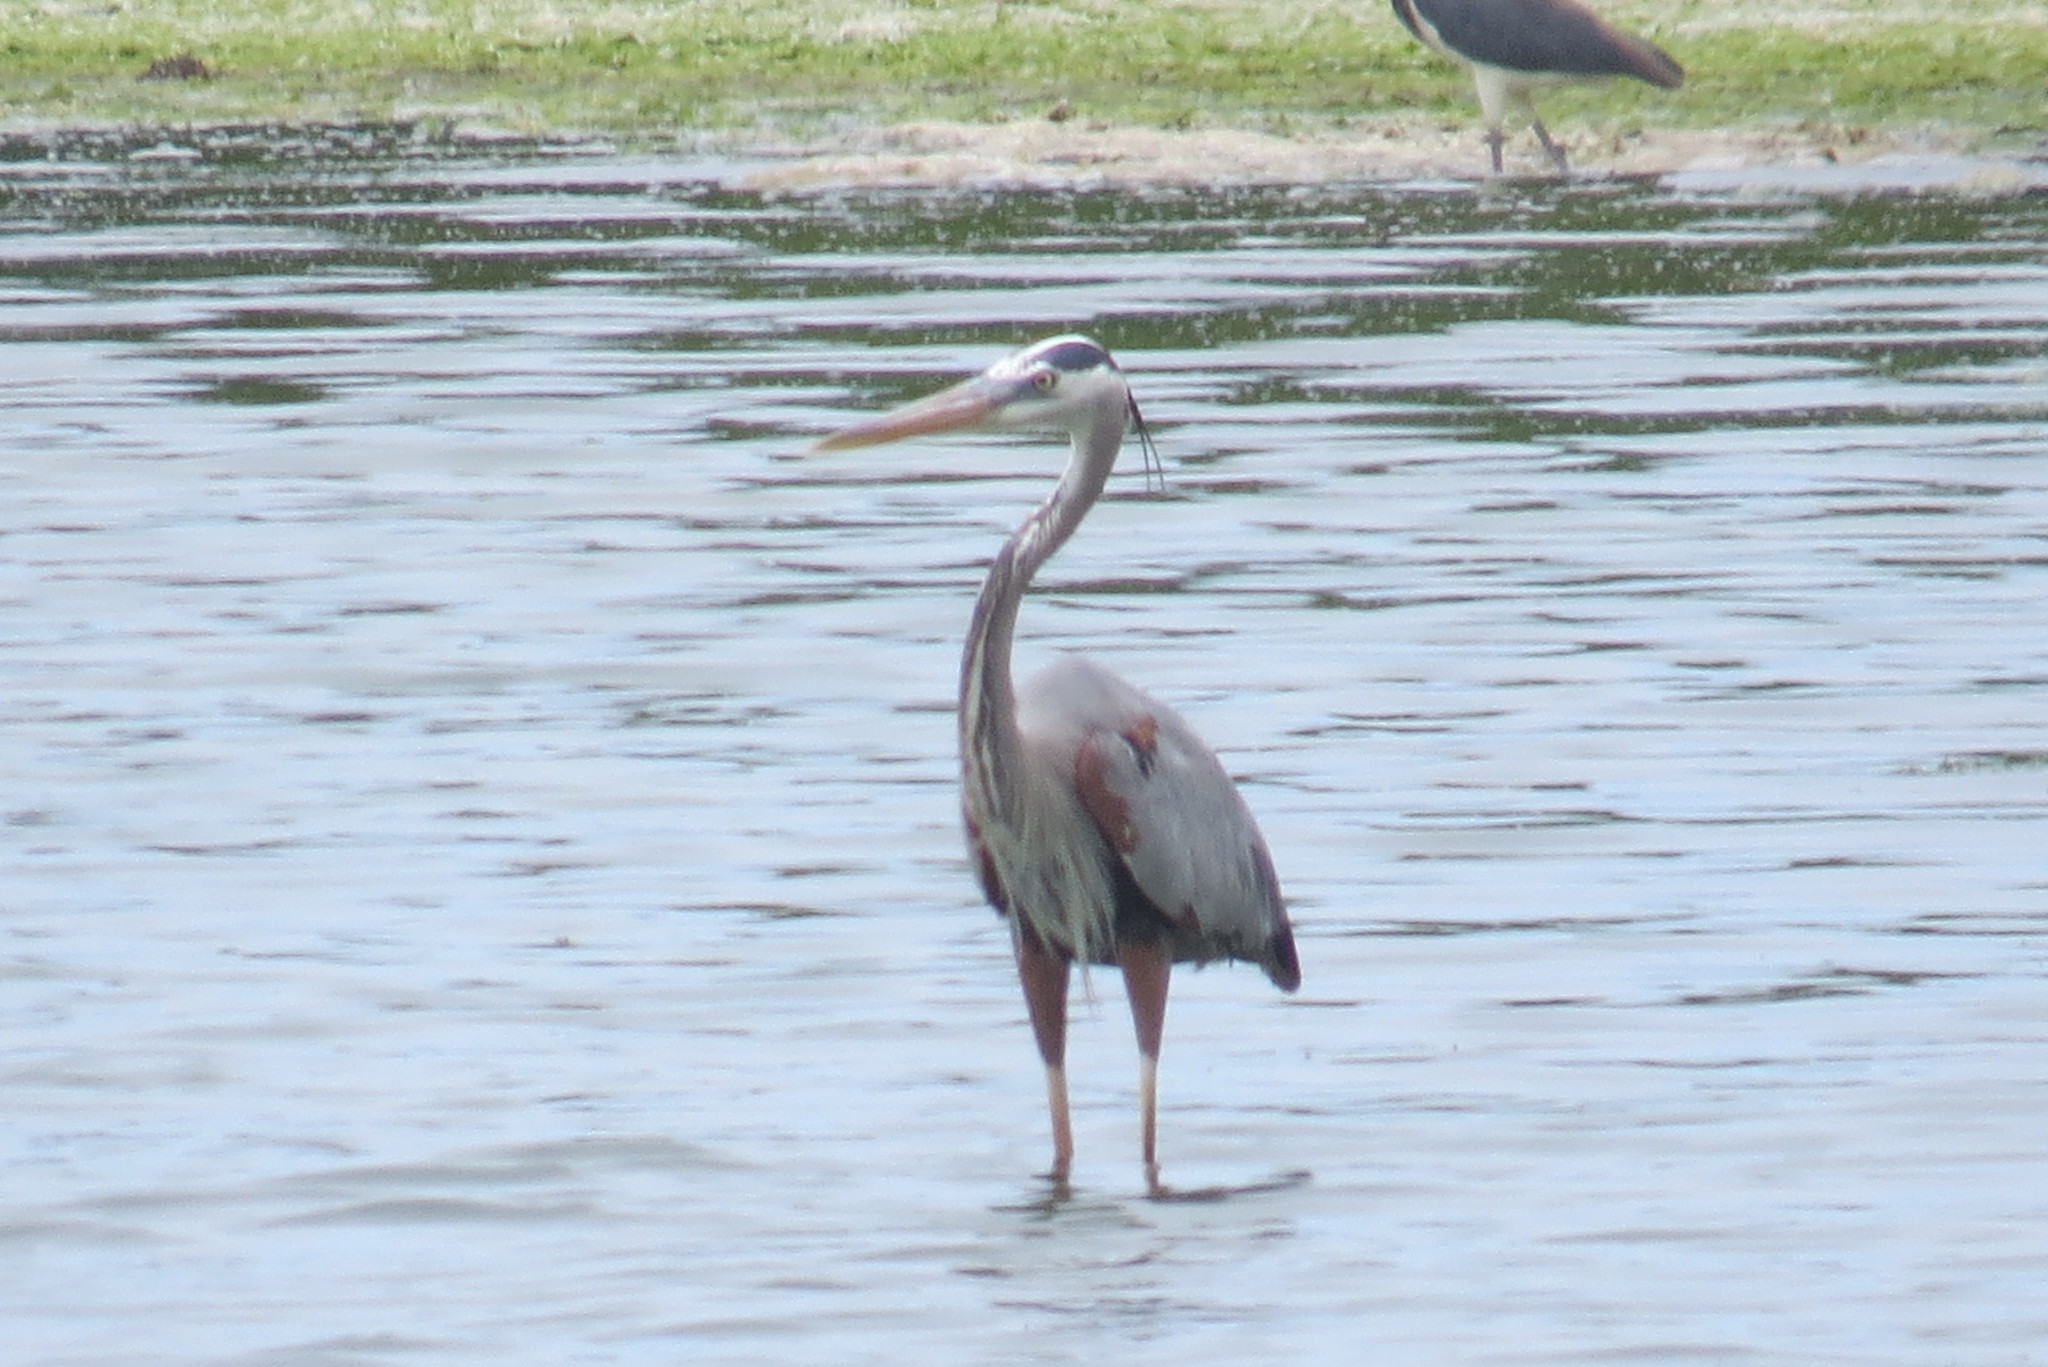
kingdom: Animalia
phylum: Chordata
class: Aves
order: Pelecaniformes
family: Ardeidae
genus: Ardea
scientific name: Ardea herodias
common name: Great blue heron
